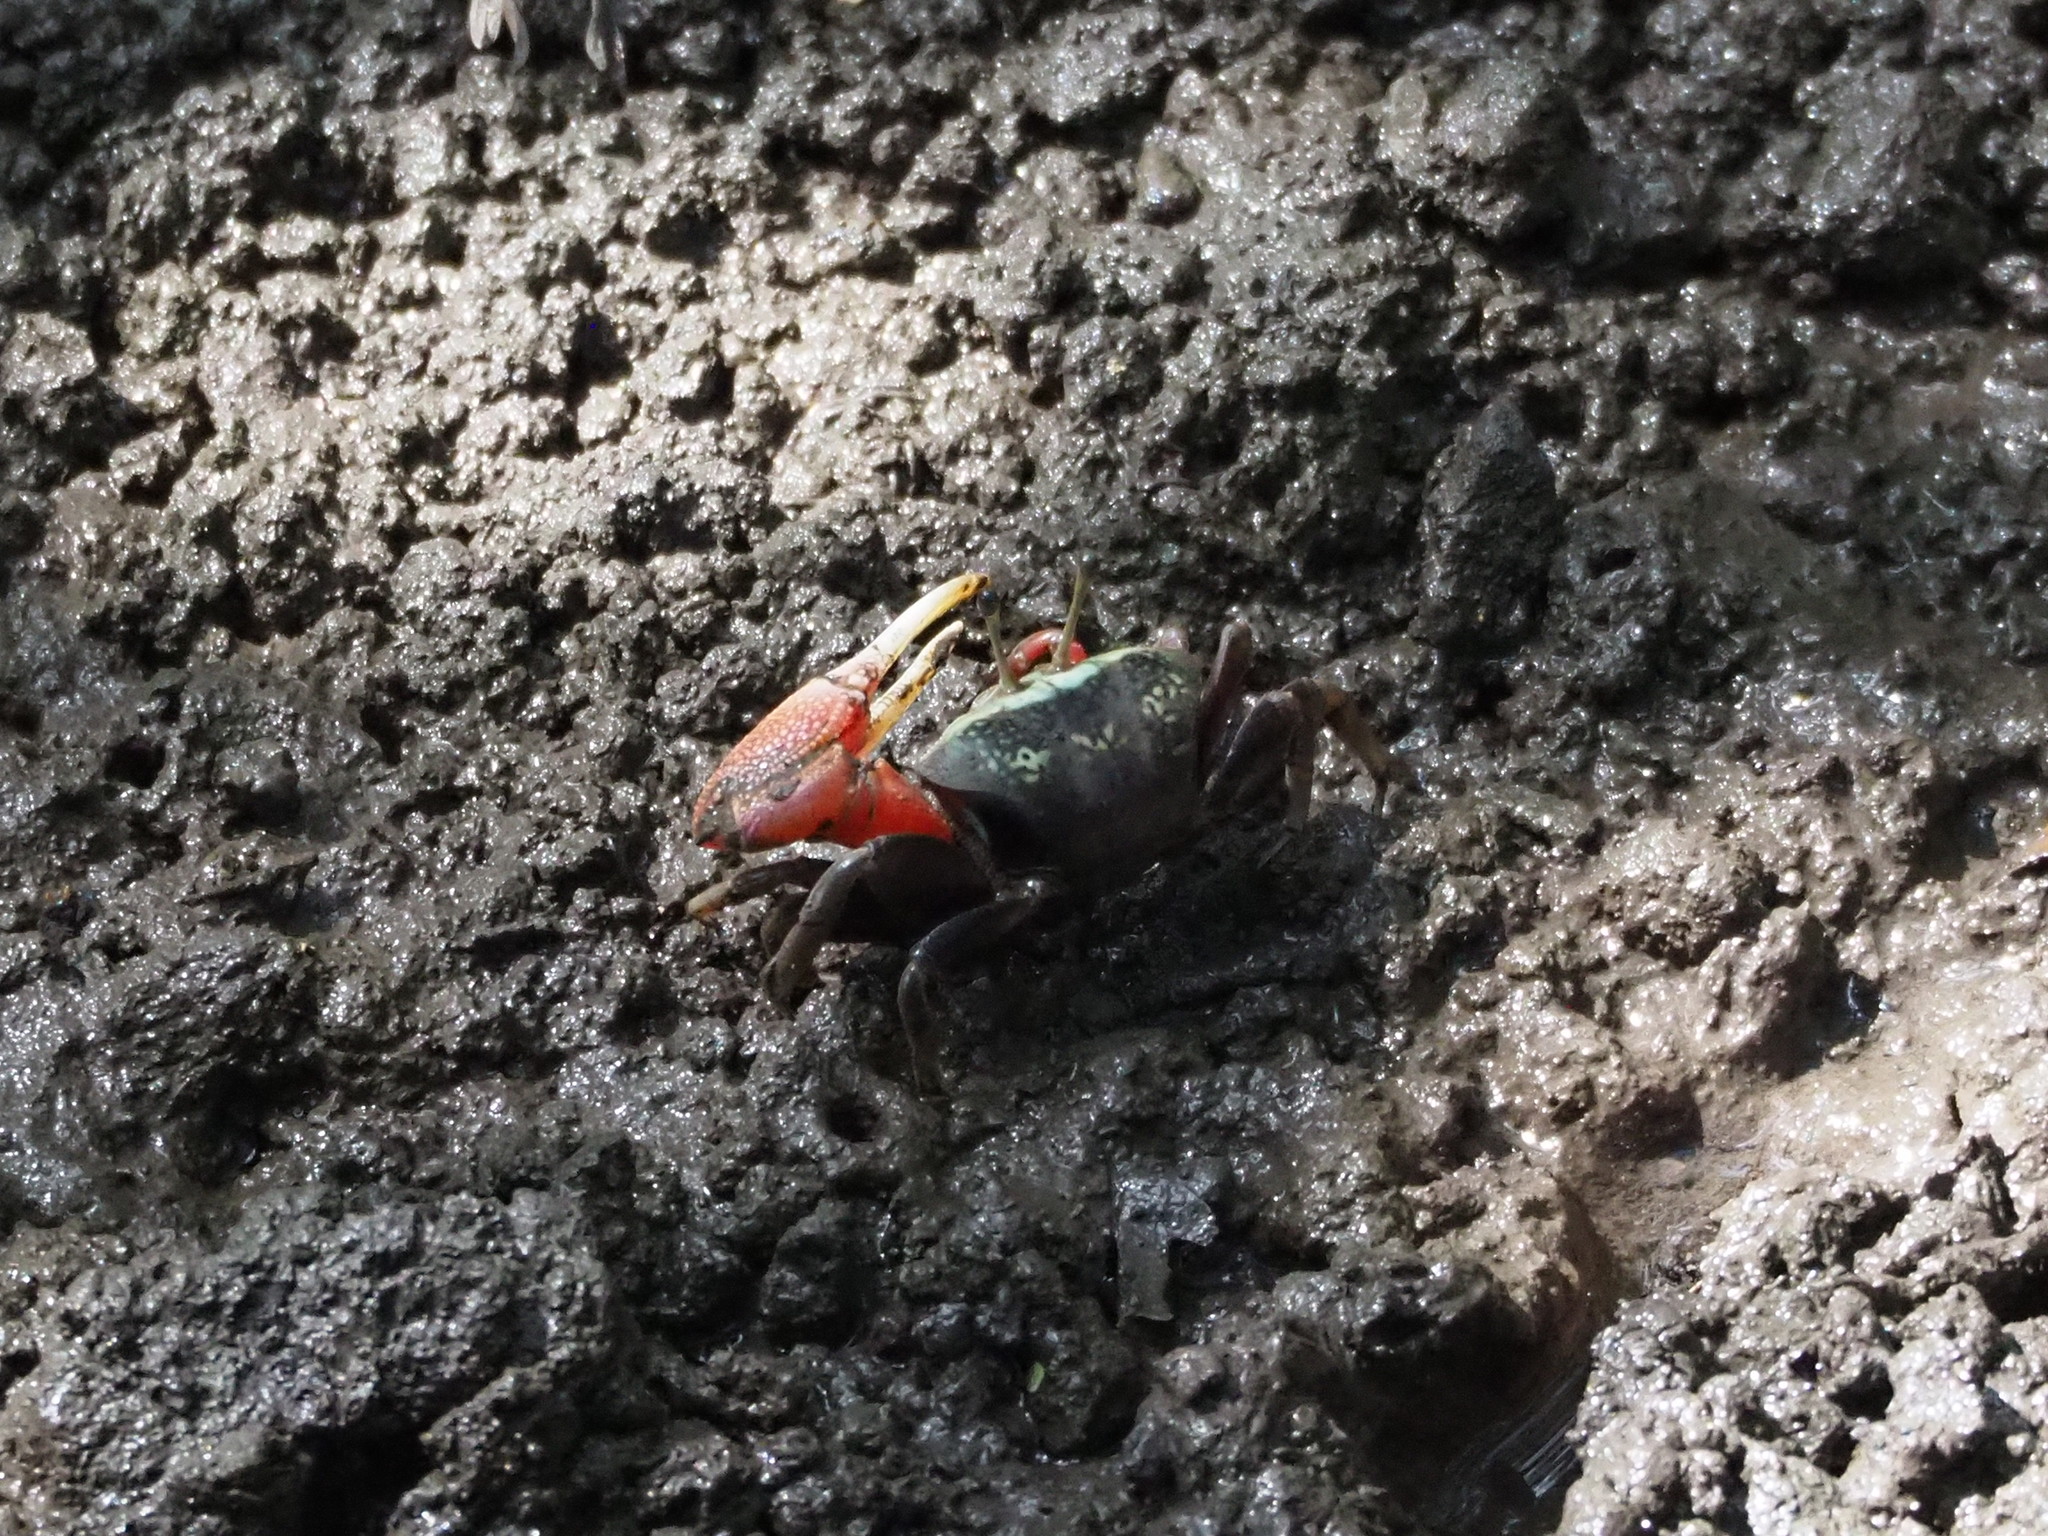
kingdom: Animalia
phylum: Arthropoda
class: Malacostraca
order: Decapoda
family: Ocypodidae
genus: Tubuca
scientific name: Tubuca arcuata
